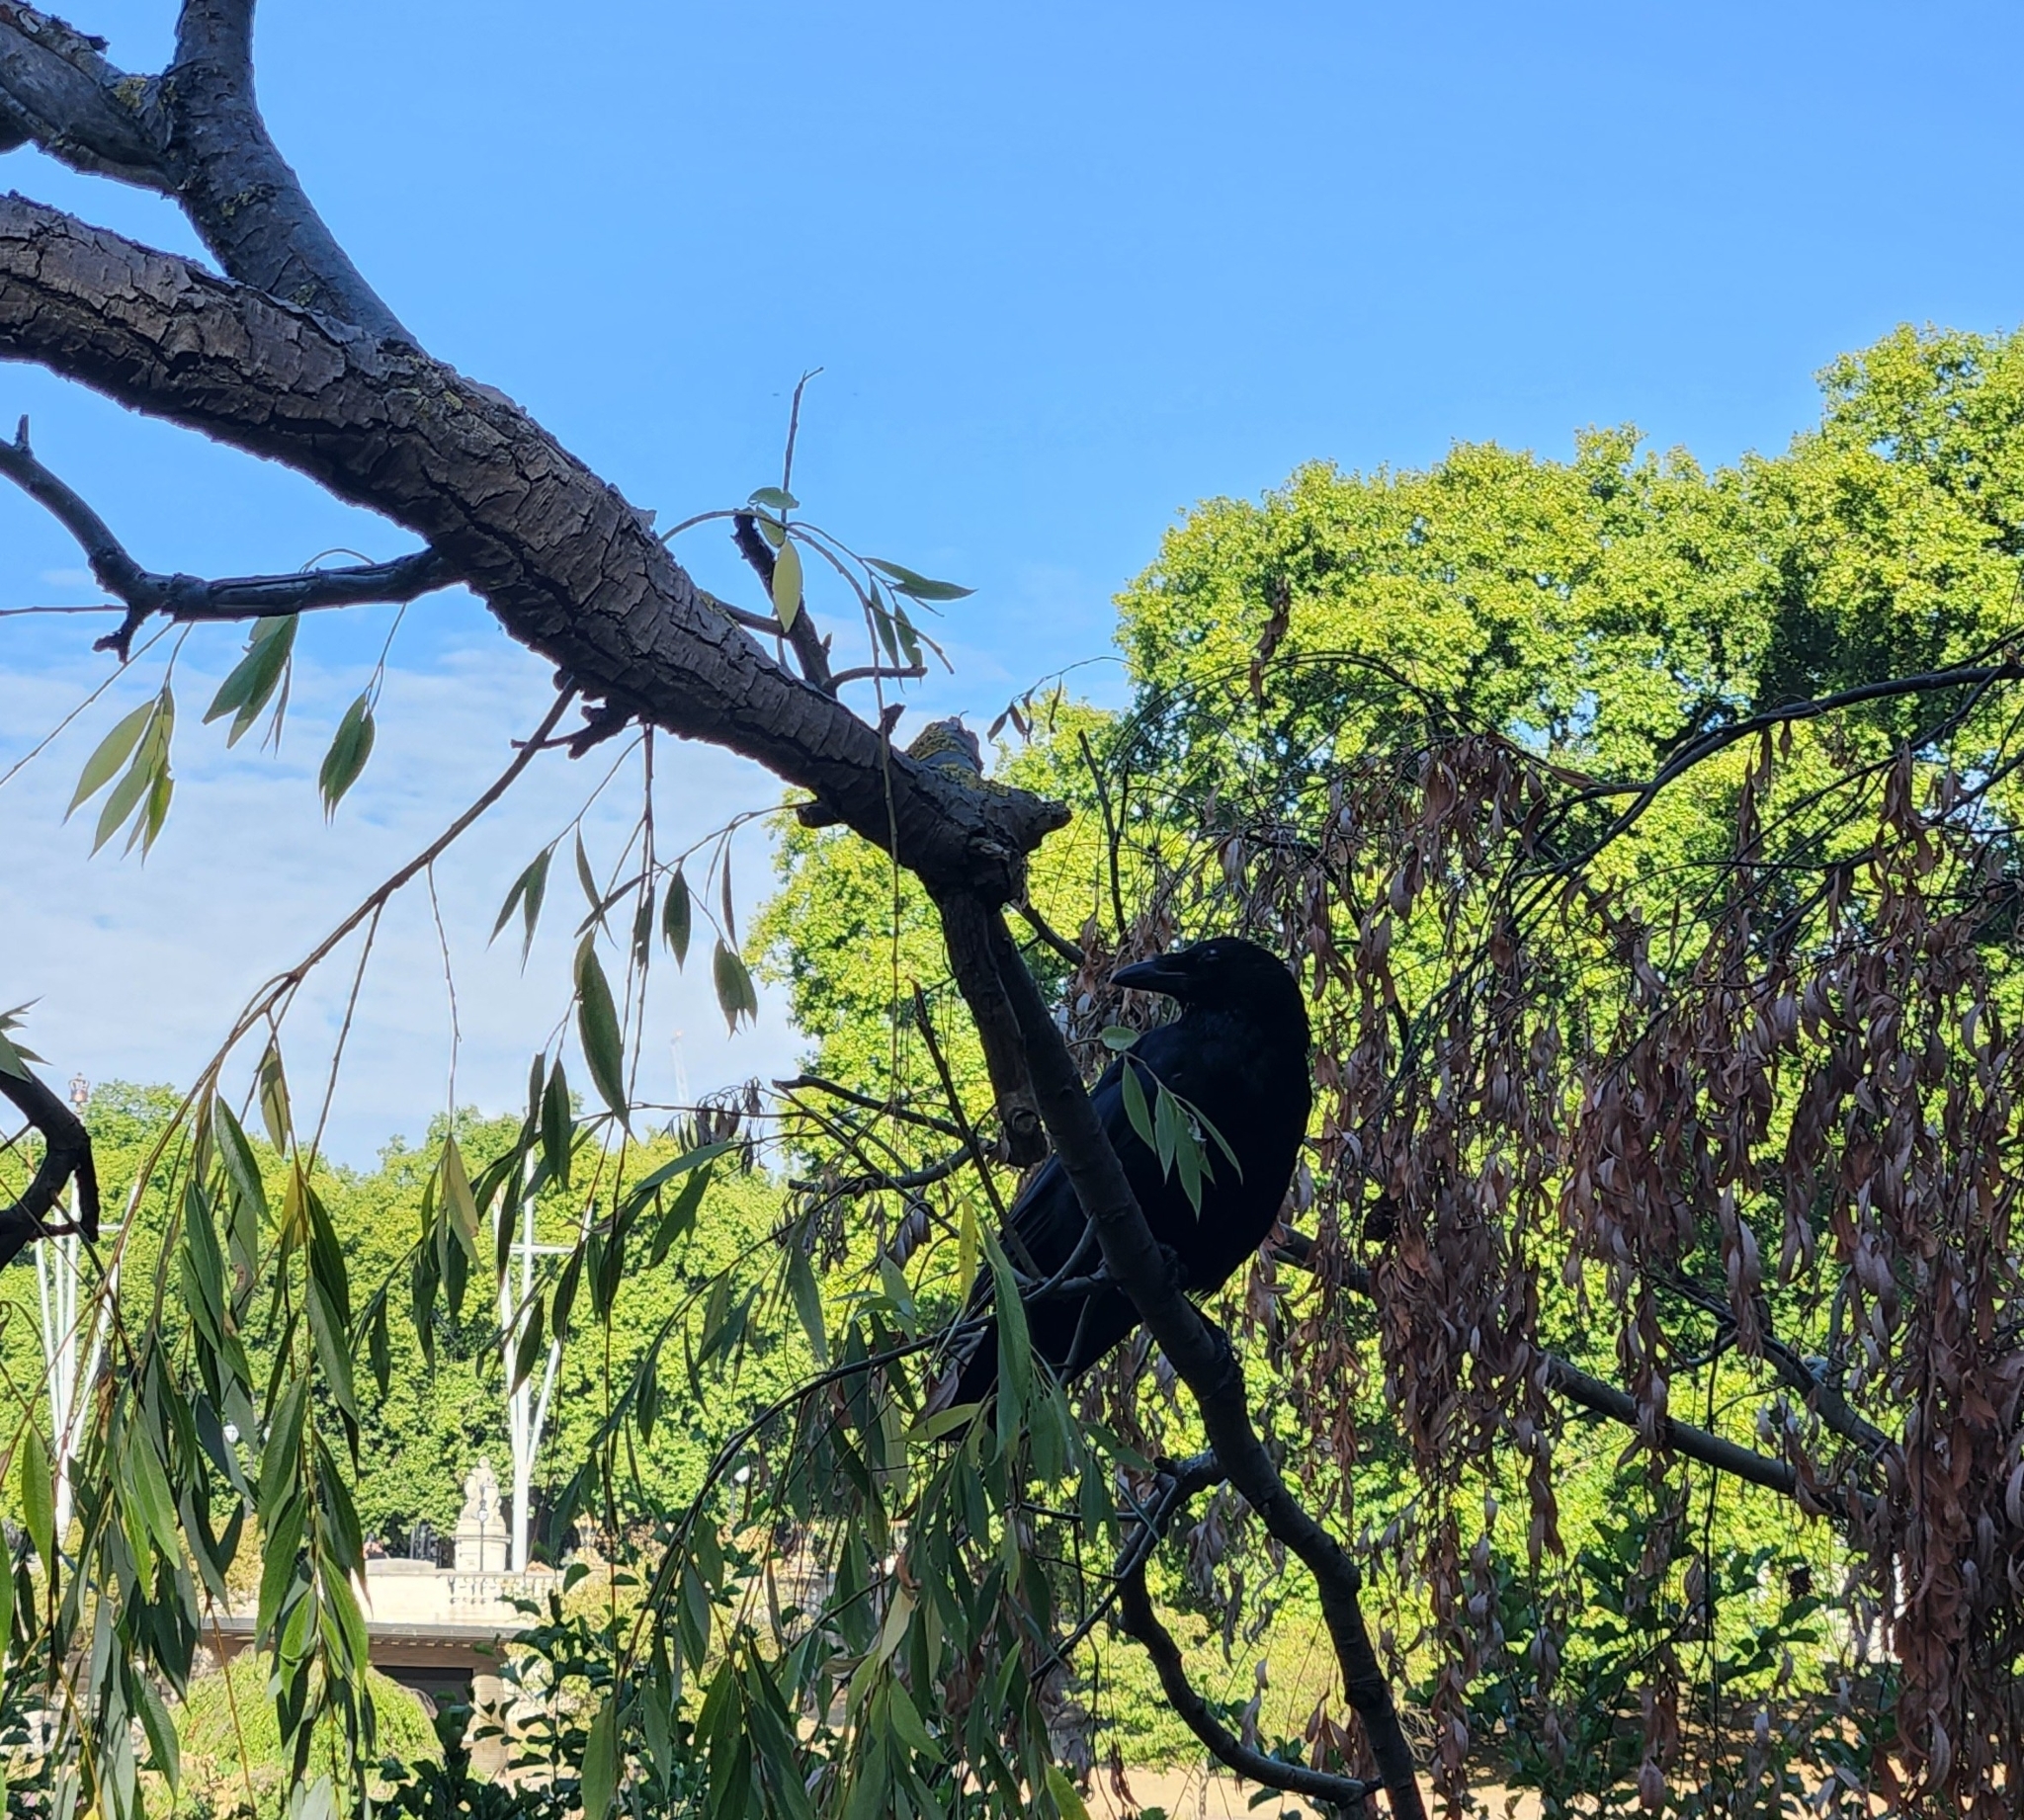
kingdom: Animalia
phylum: Chordata
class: Aves
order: Passeriformes
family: Corvidae
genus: Corvus
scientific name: Corvus corone
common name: Carrion crow
